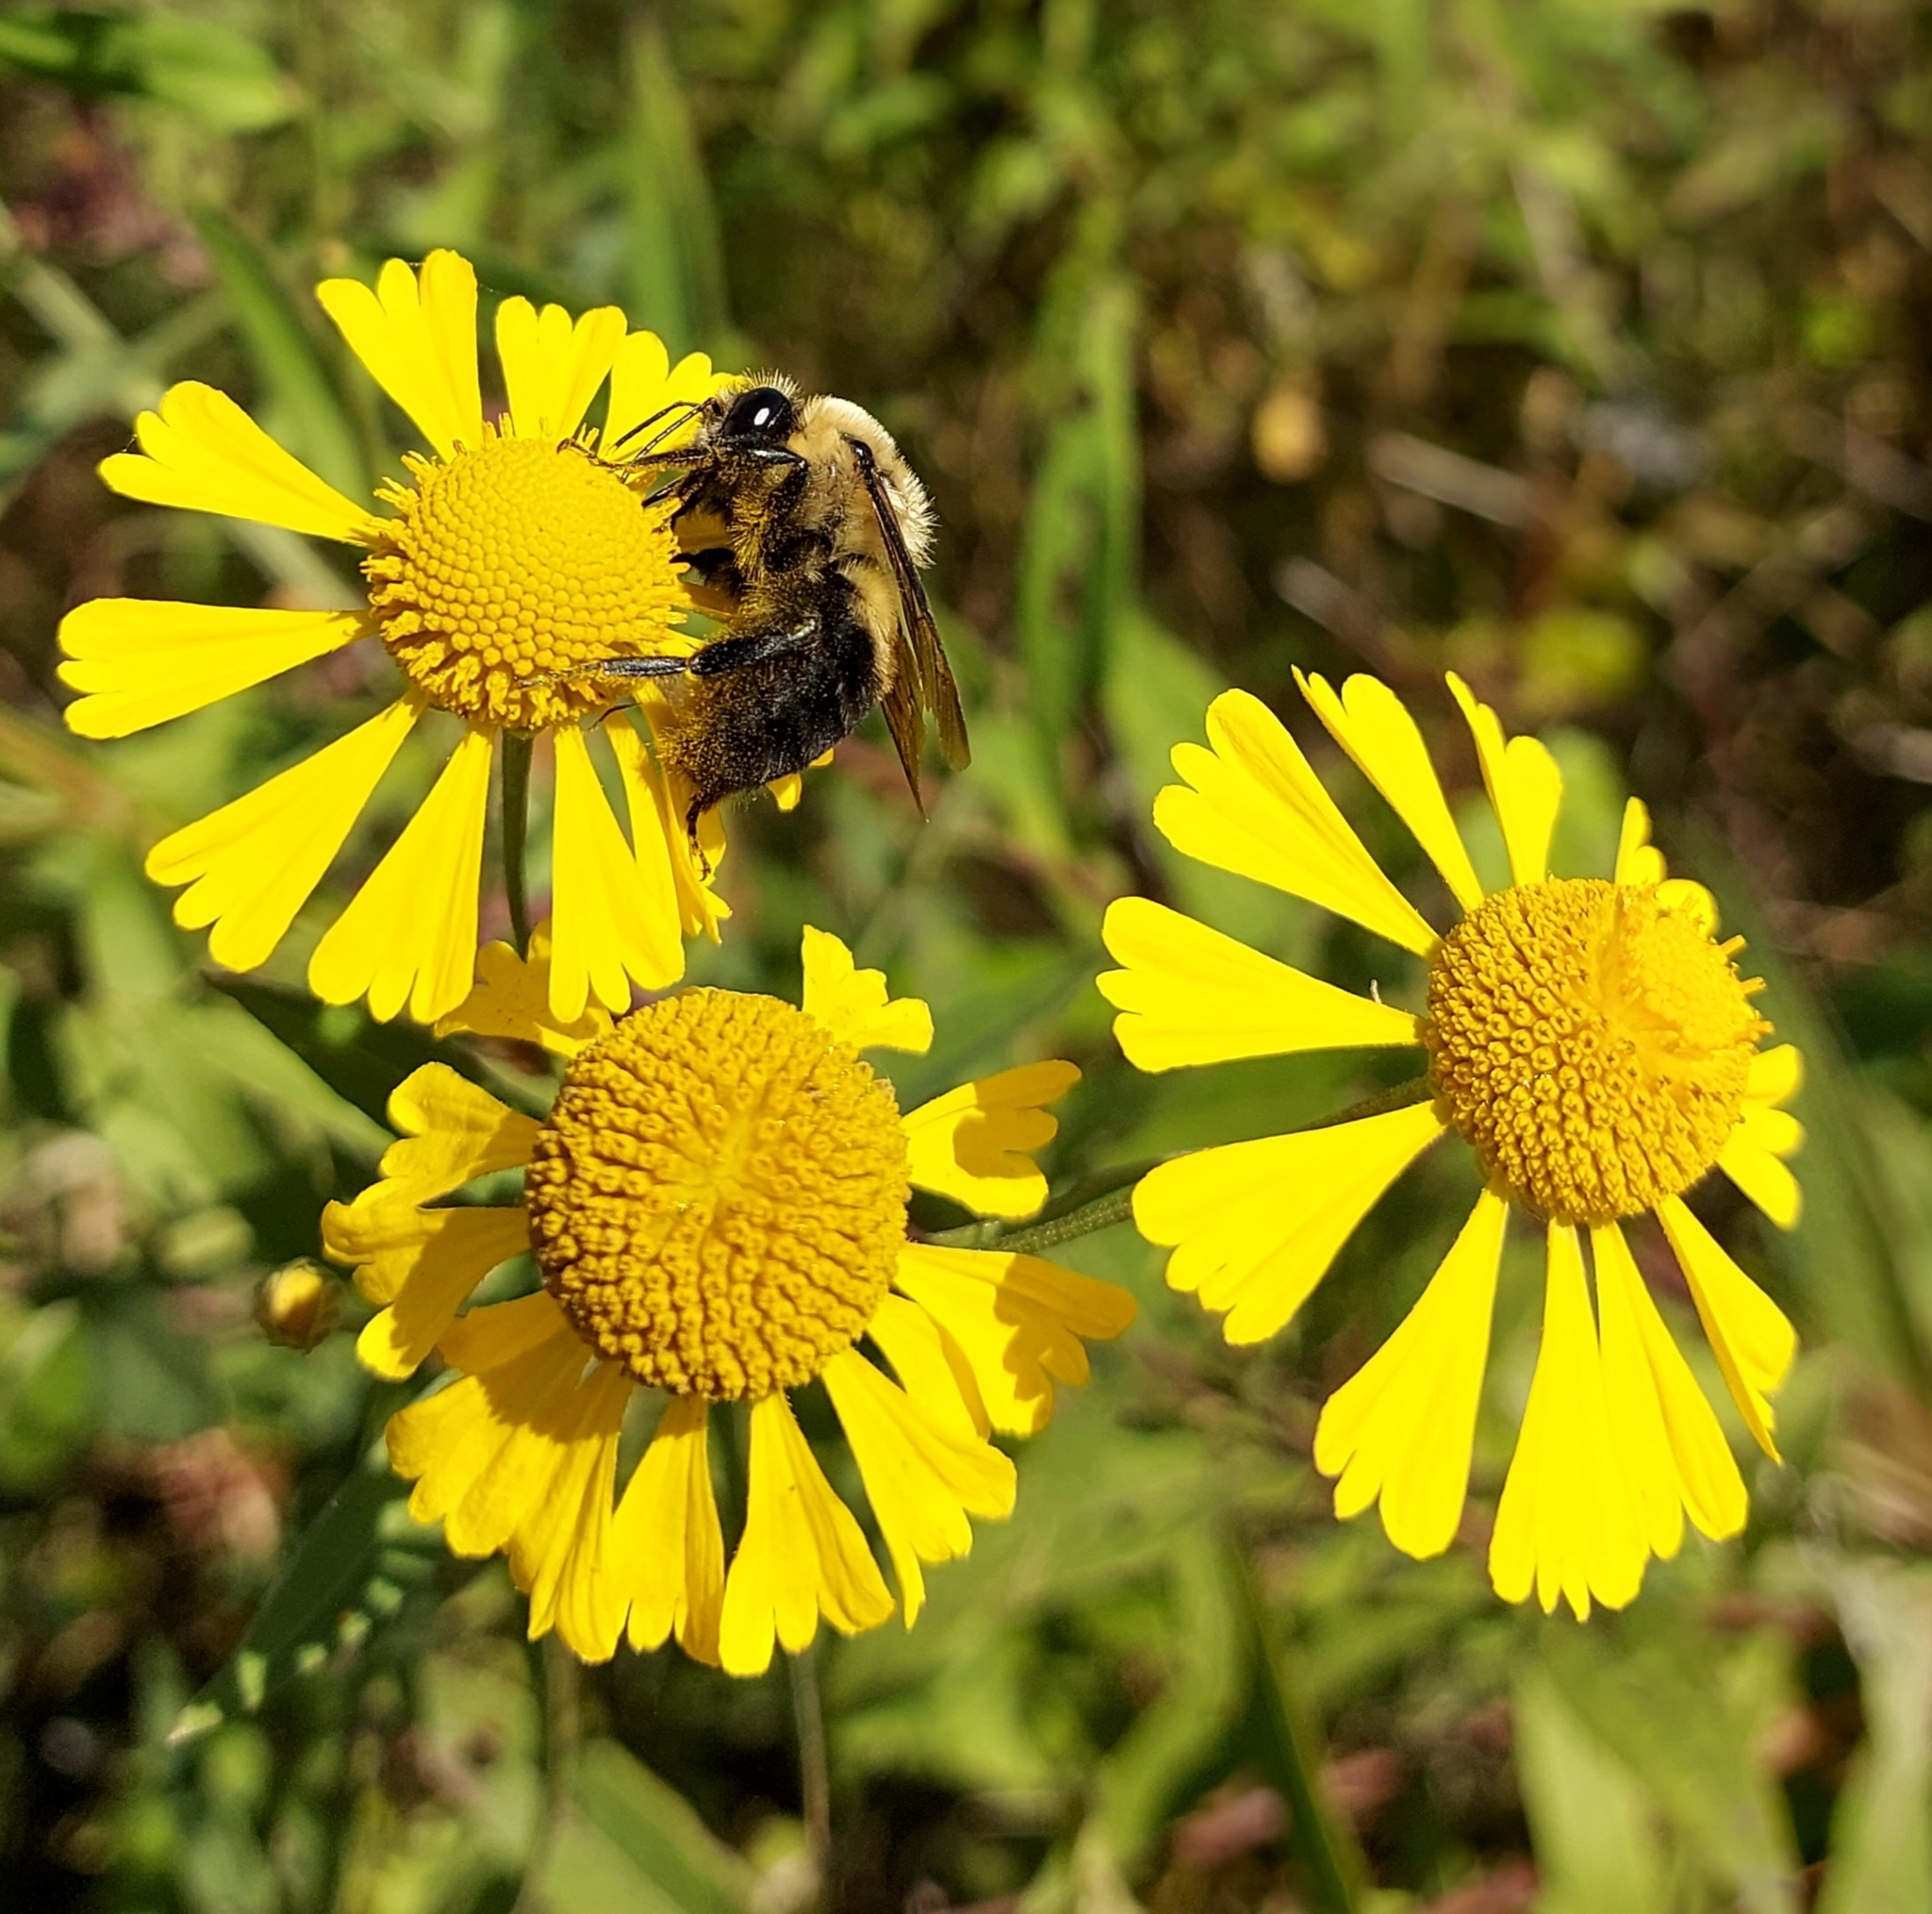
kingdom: Animalia
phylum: Arthropoda
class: Insecta
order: Hymenoptera
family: Apidae
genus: Bombus
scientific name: Bombus griseocollis
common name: Brown-belted bumble bee
